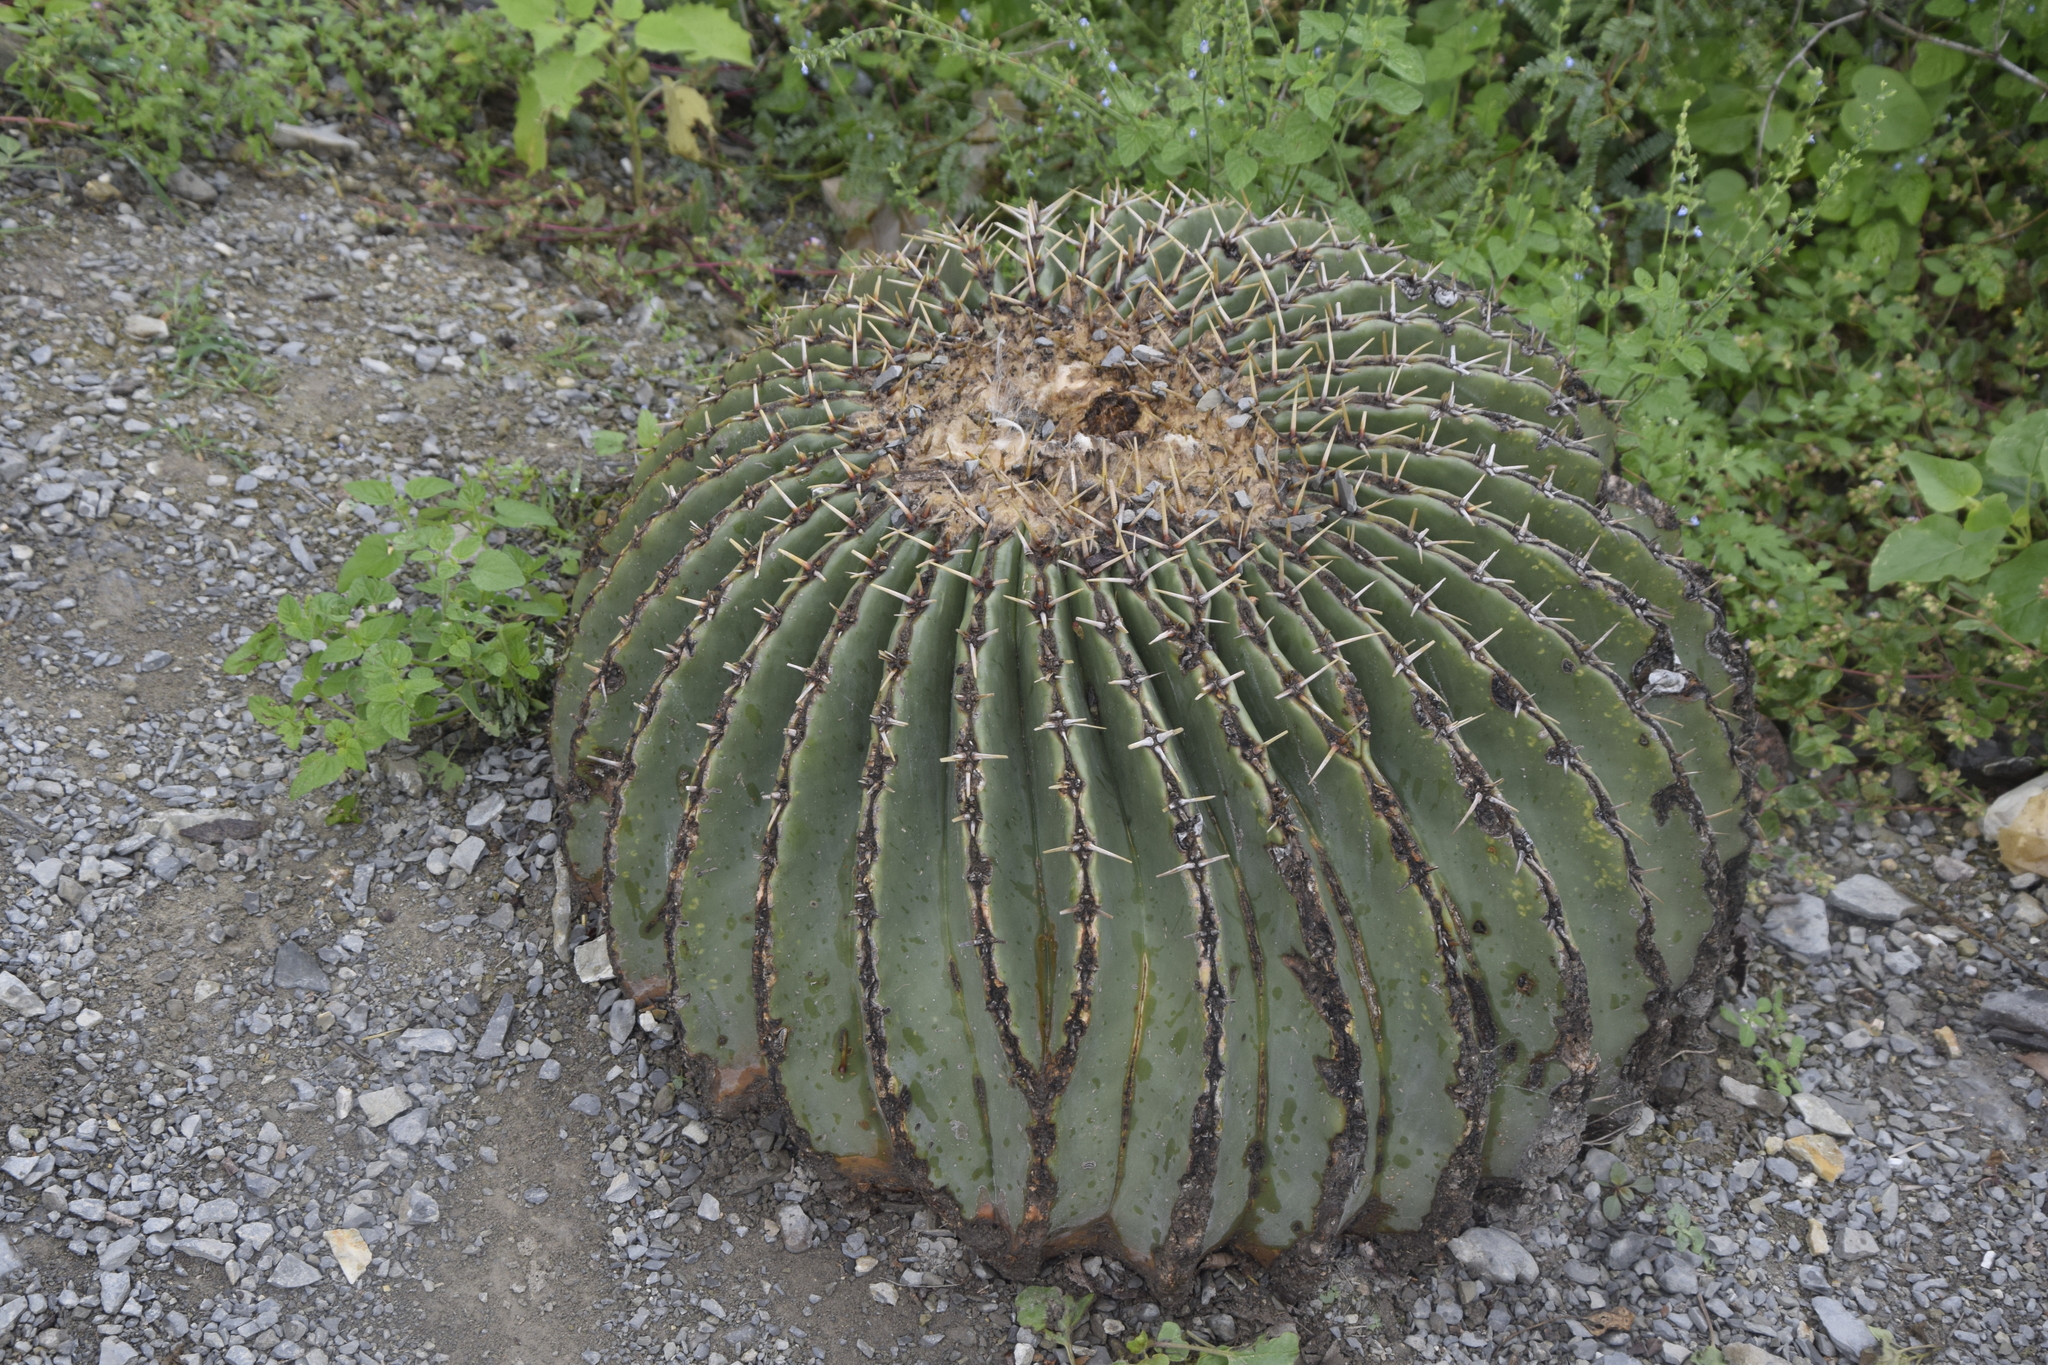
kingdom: Plantae
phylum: Tracheophyta
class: Magnoliopsida
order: Caryophyllales
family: Cactaceae
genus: Echinocactus
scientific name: Echinocactus platyacanthus
